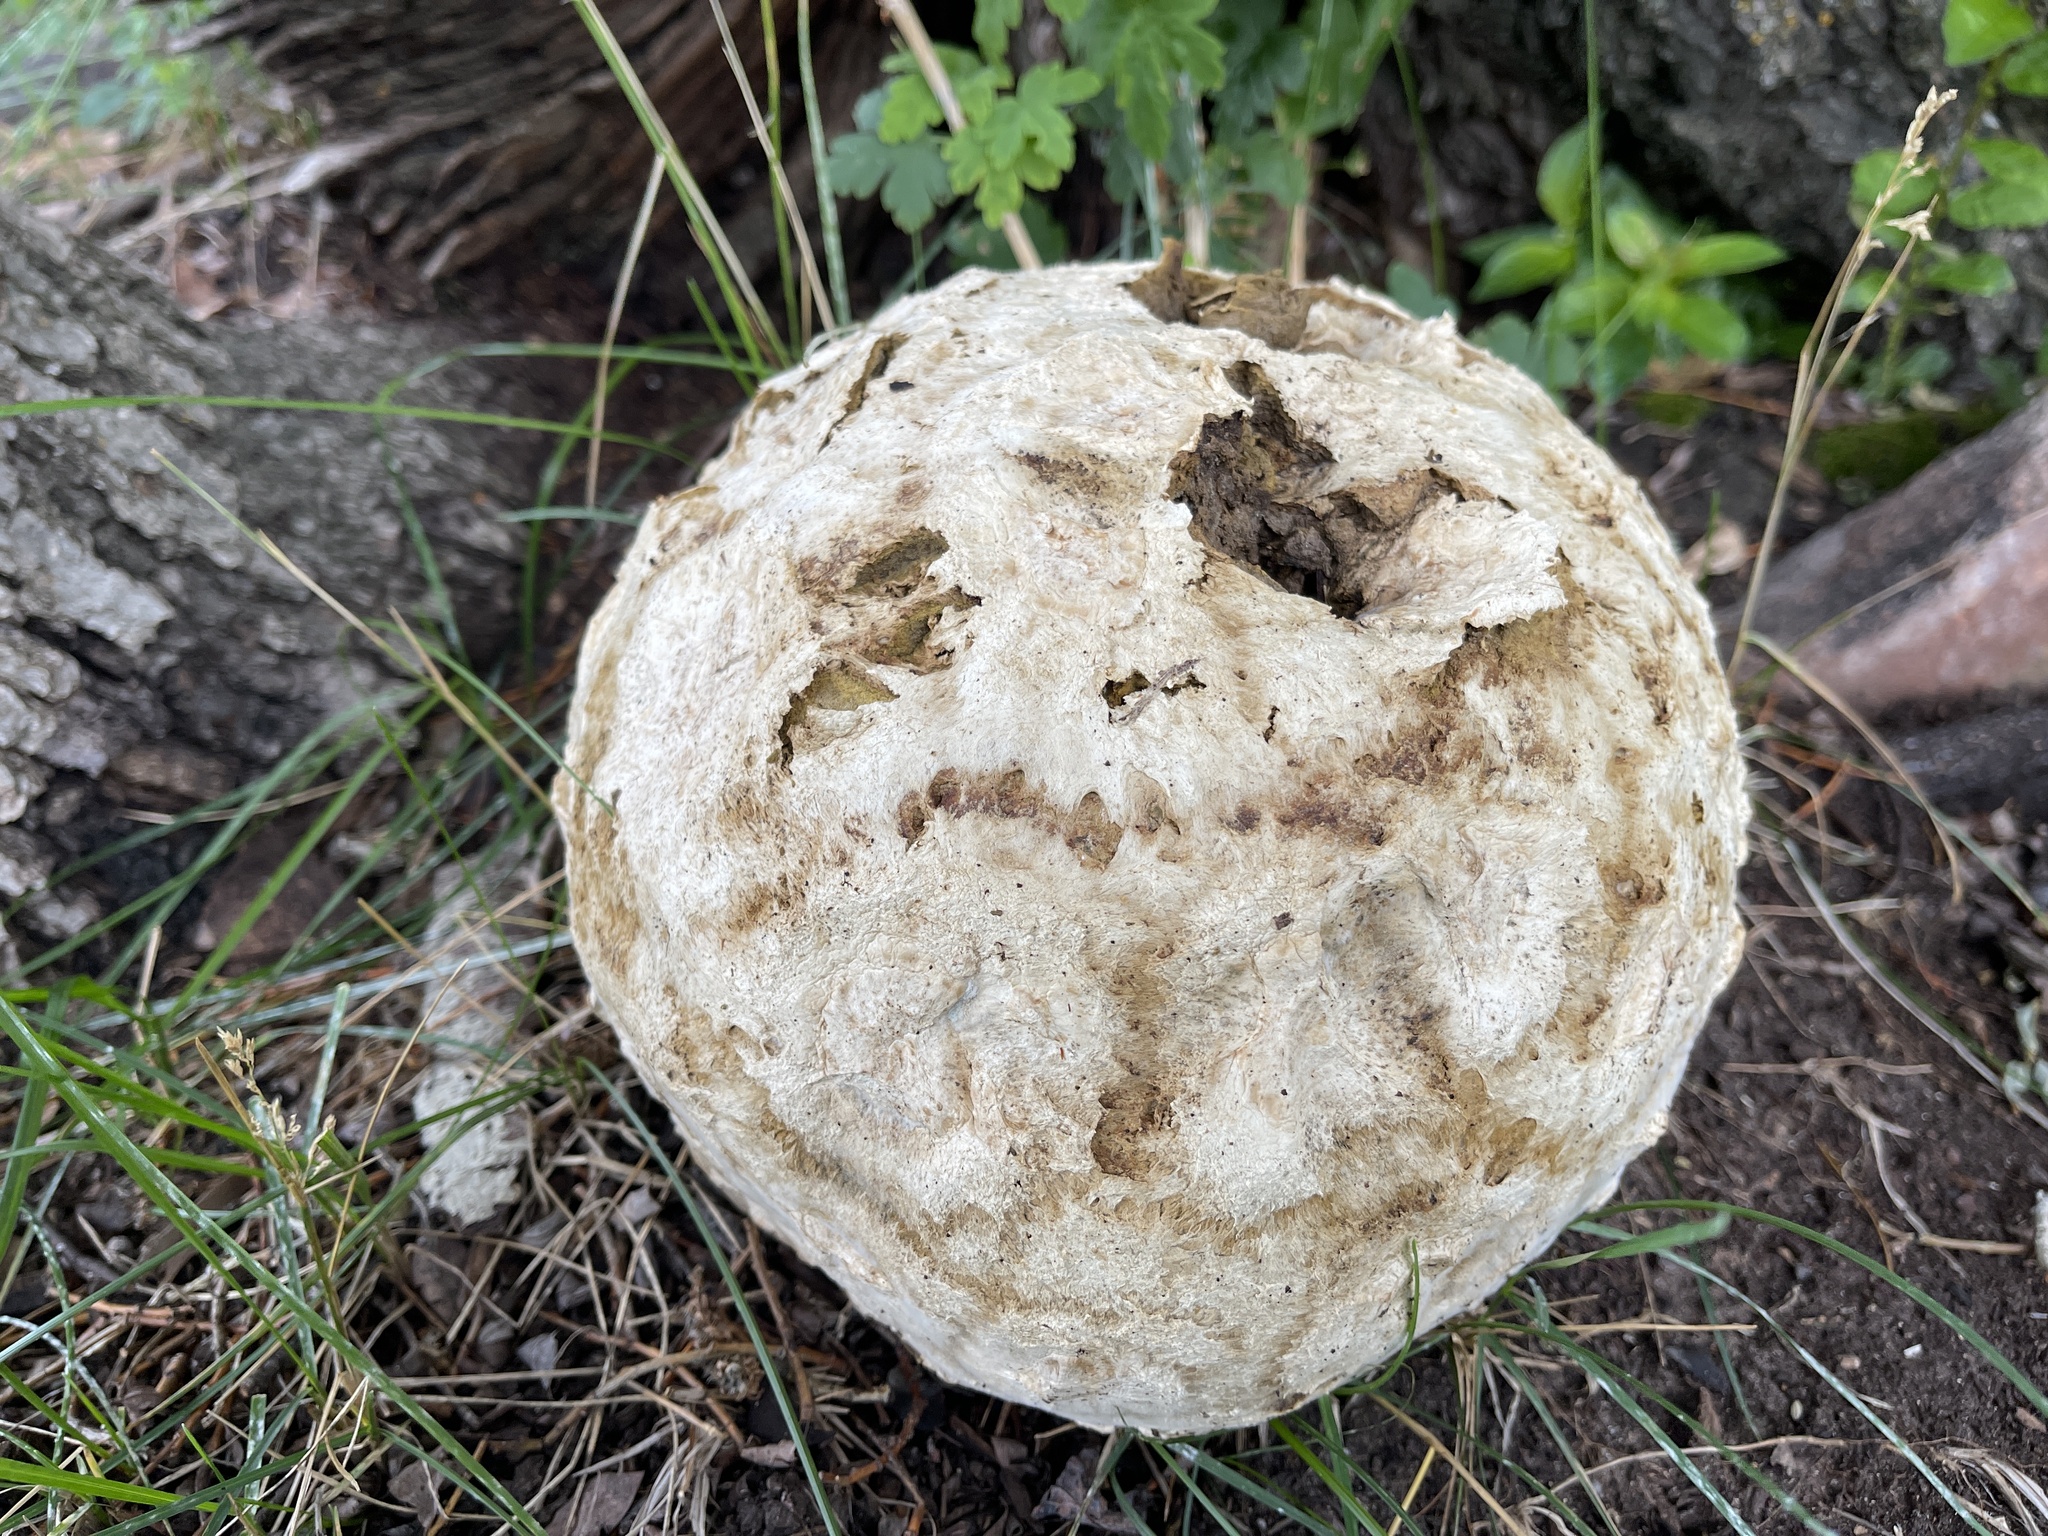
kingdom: Fungi
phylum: Basidiomycota
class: Agaricomycetes
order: Agaricales
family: Lycoperdaceae
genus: Calvatia
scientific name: Calvatia booniana
